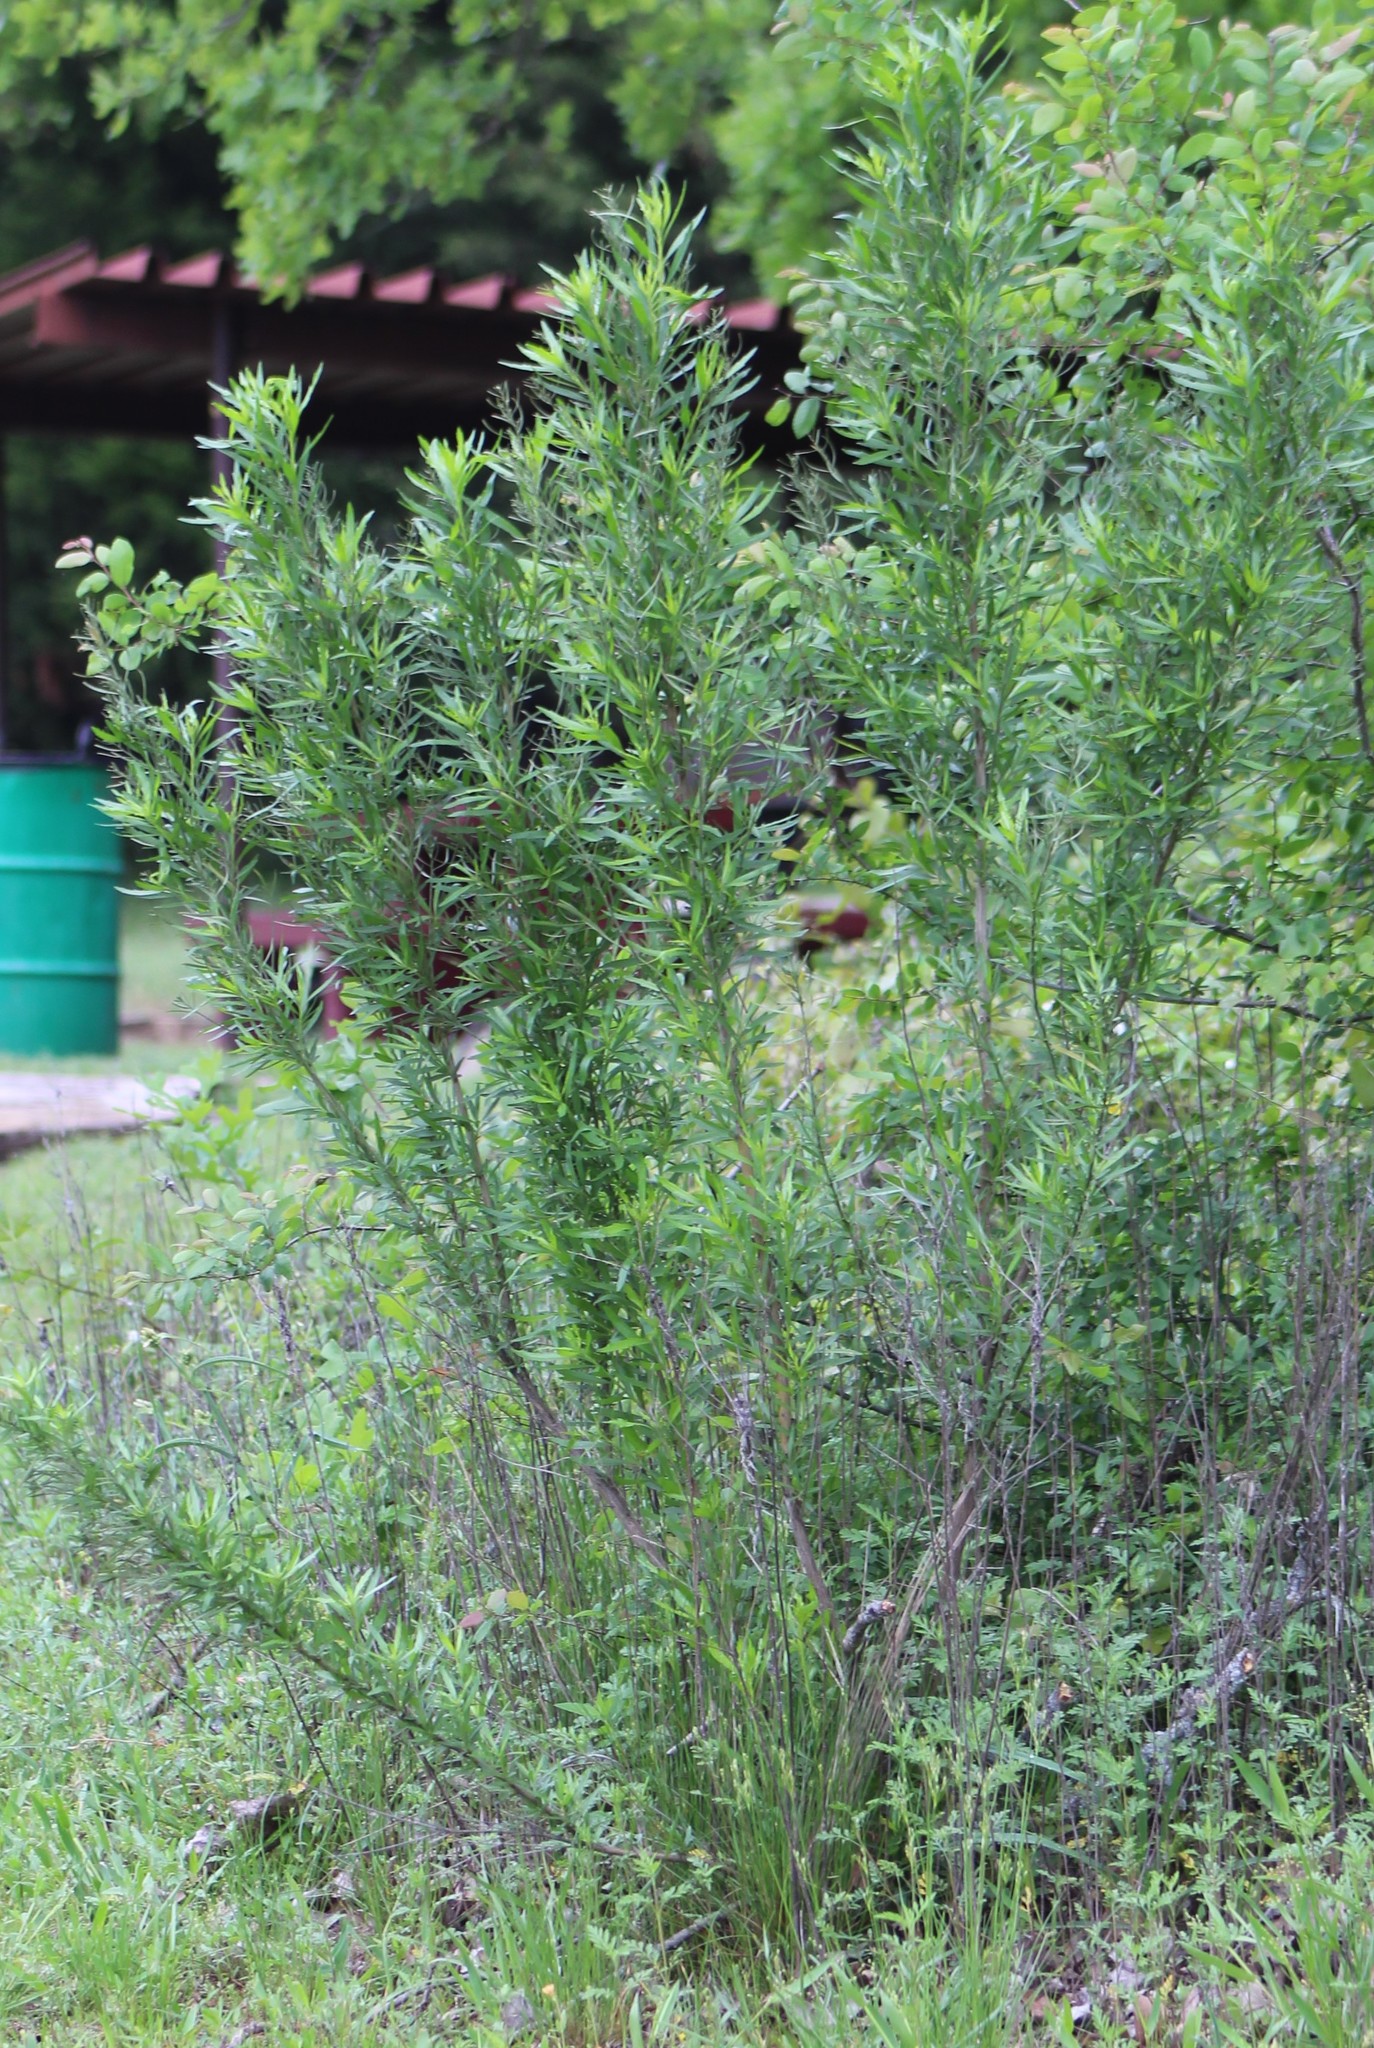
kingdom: Plantae
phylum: Tracheophyta
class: Magnoliopsida
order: Asterales
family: Asteraceae
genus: Baccharis
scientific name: Baccharis neglecta
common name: Roosevelt-weed
